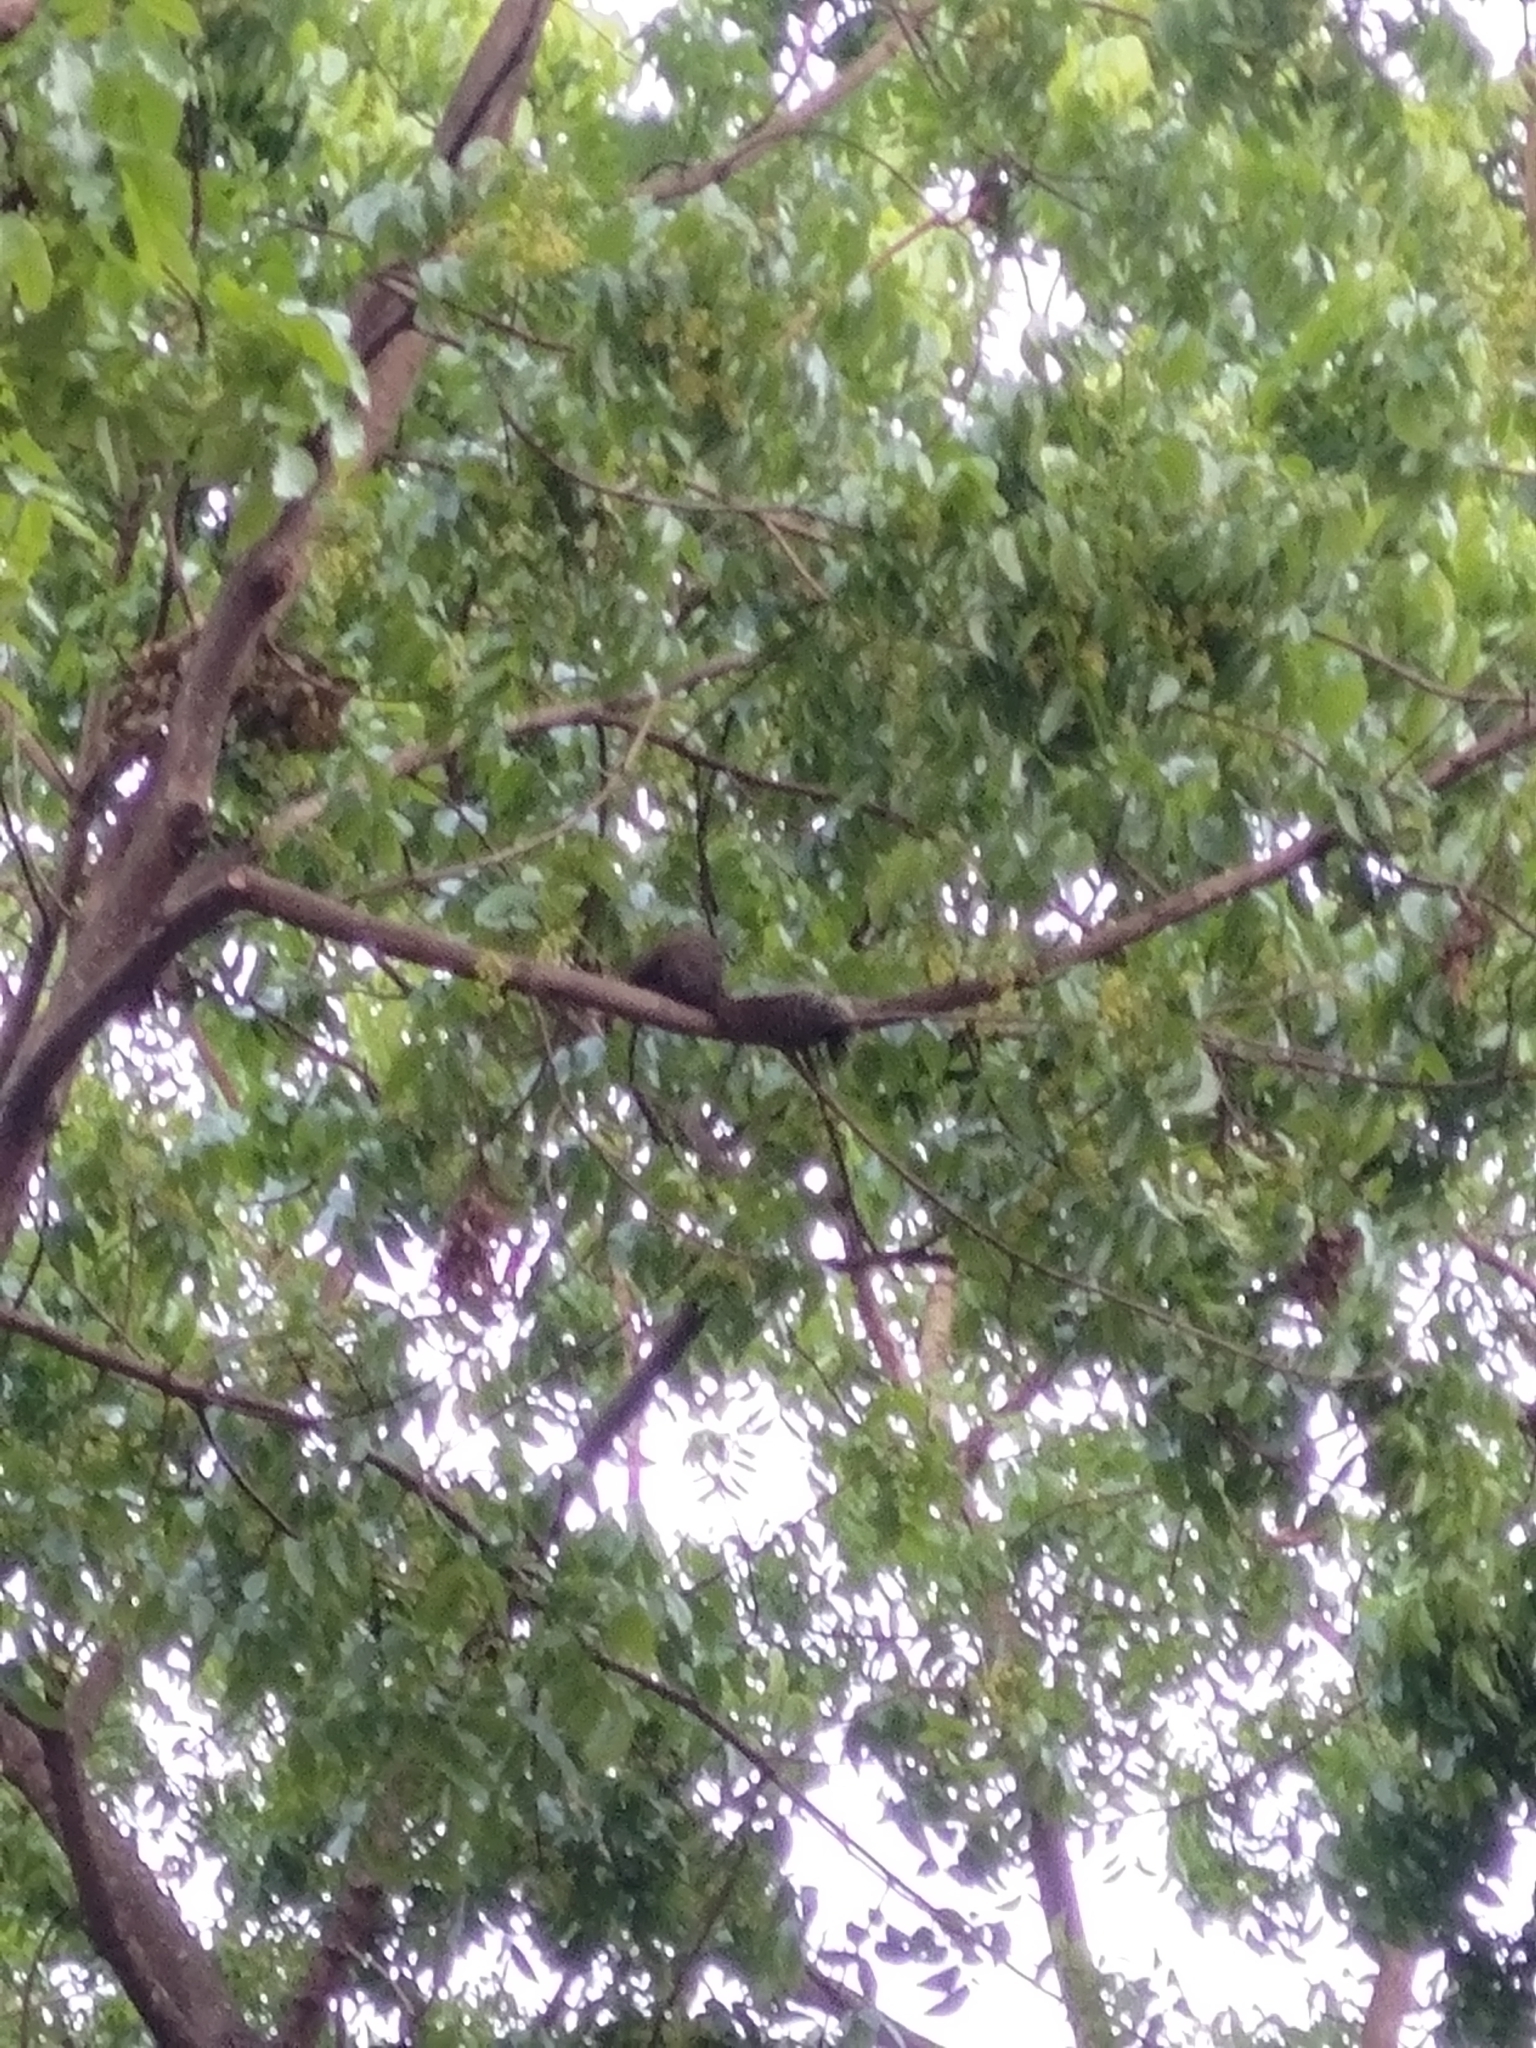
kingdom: Animalia
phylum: Chordata
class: Mammalia
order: Rodentia
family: Sciuridae
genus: Callosciurus
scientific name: Callosciurus erythraeus
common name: Pallas's squirrel
